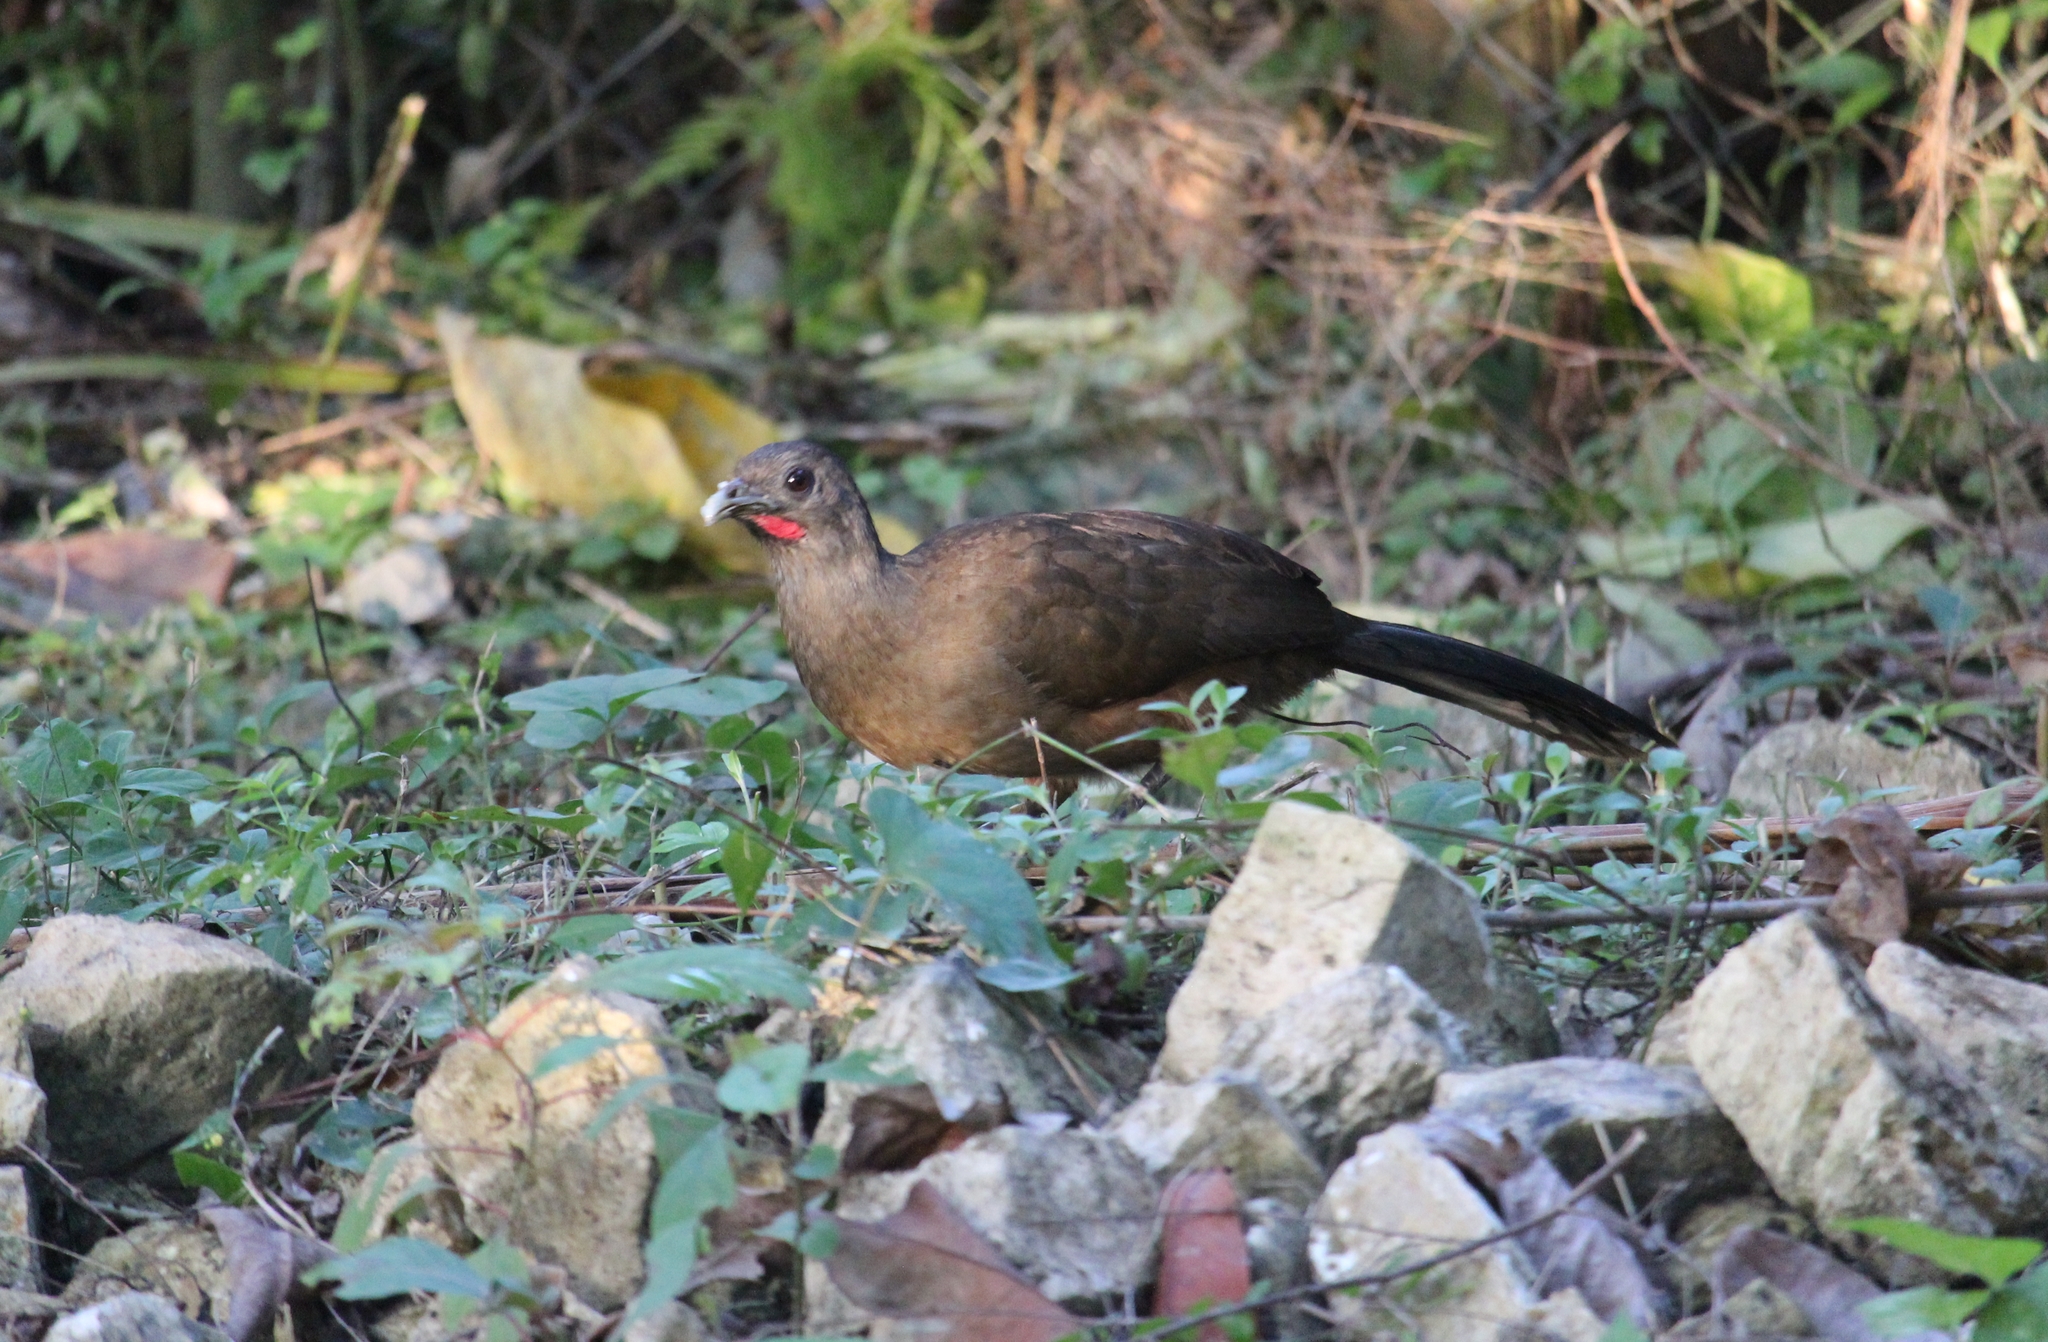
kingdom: Animalia
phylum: Chordata
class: Aves
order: Galliformes
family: Cracidae
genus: Ortalis
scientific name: Ortalis vetula
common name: Plain chachalaca
